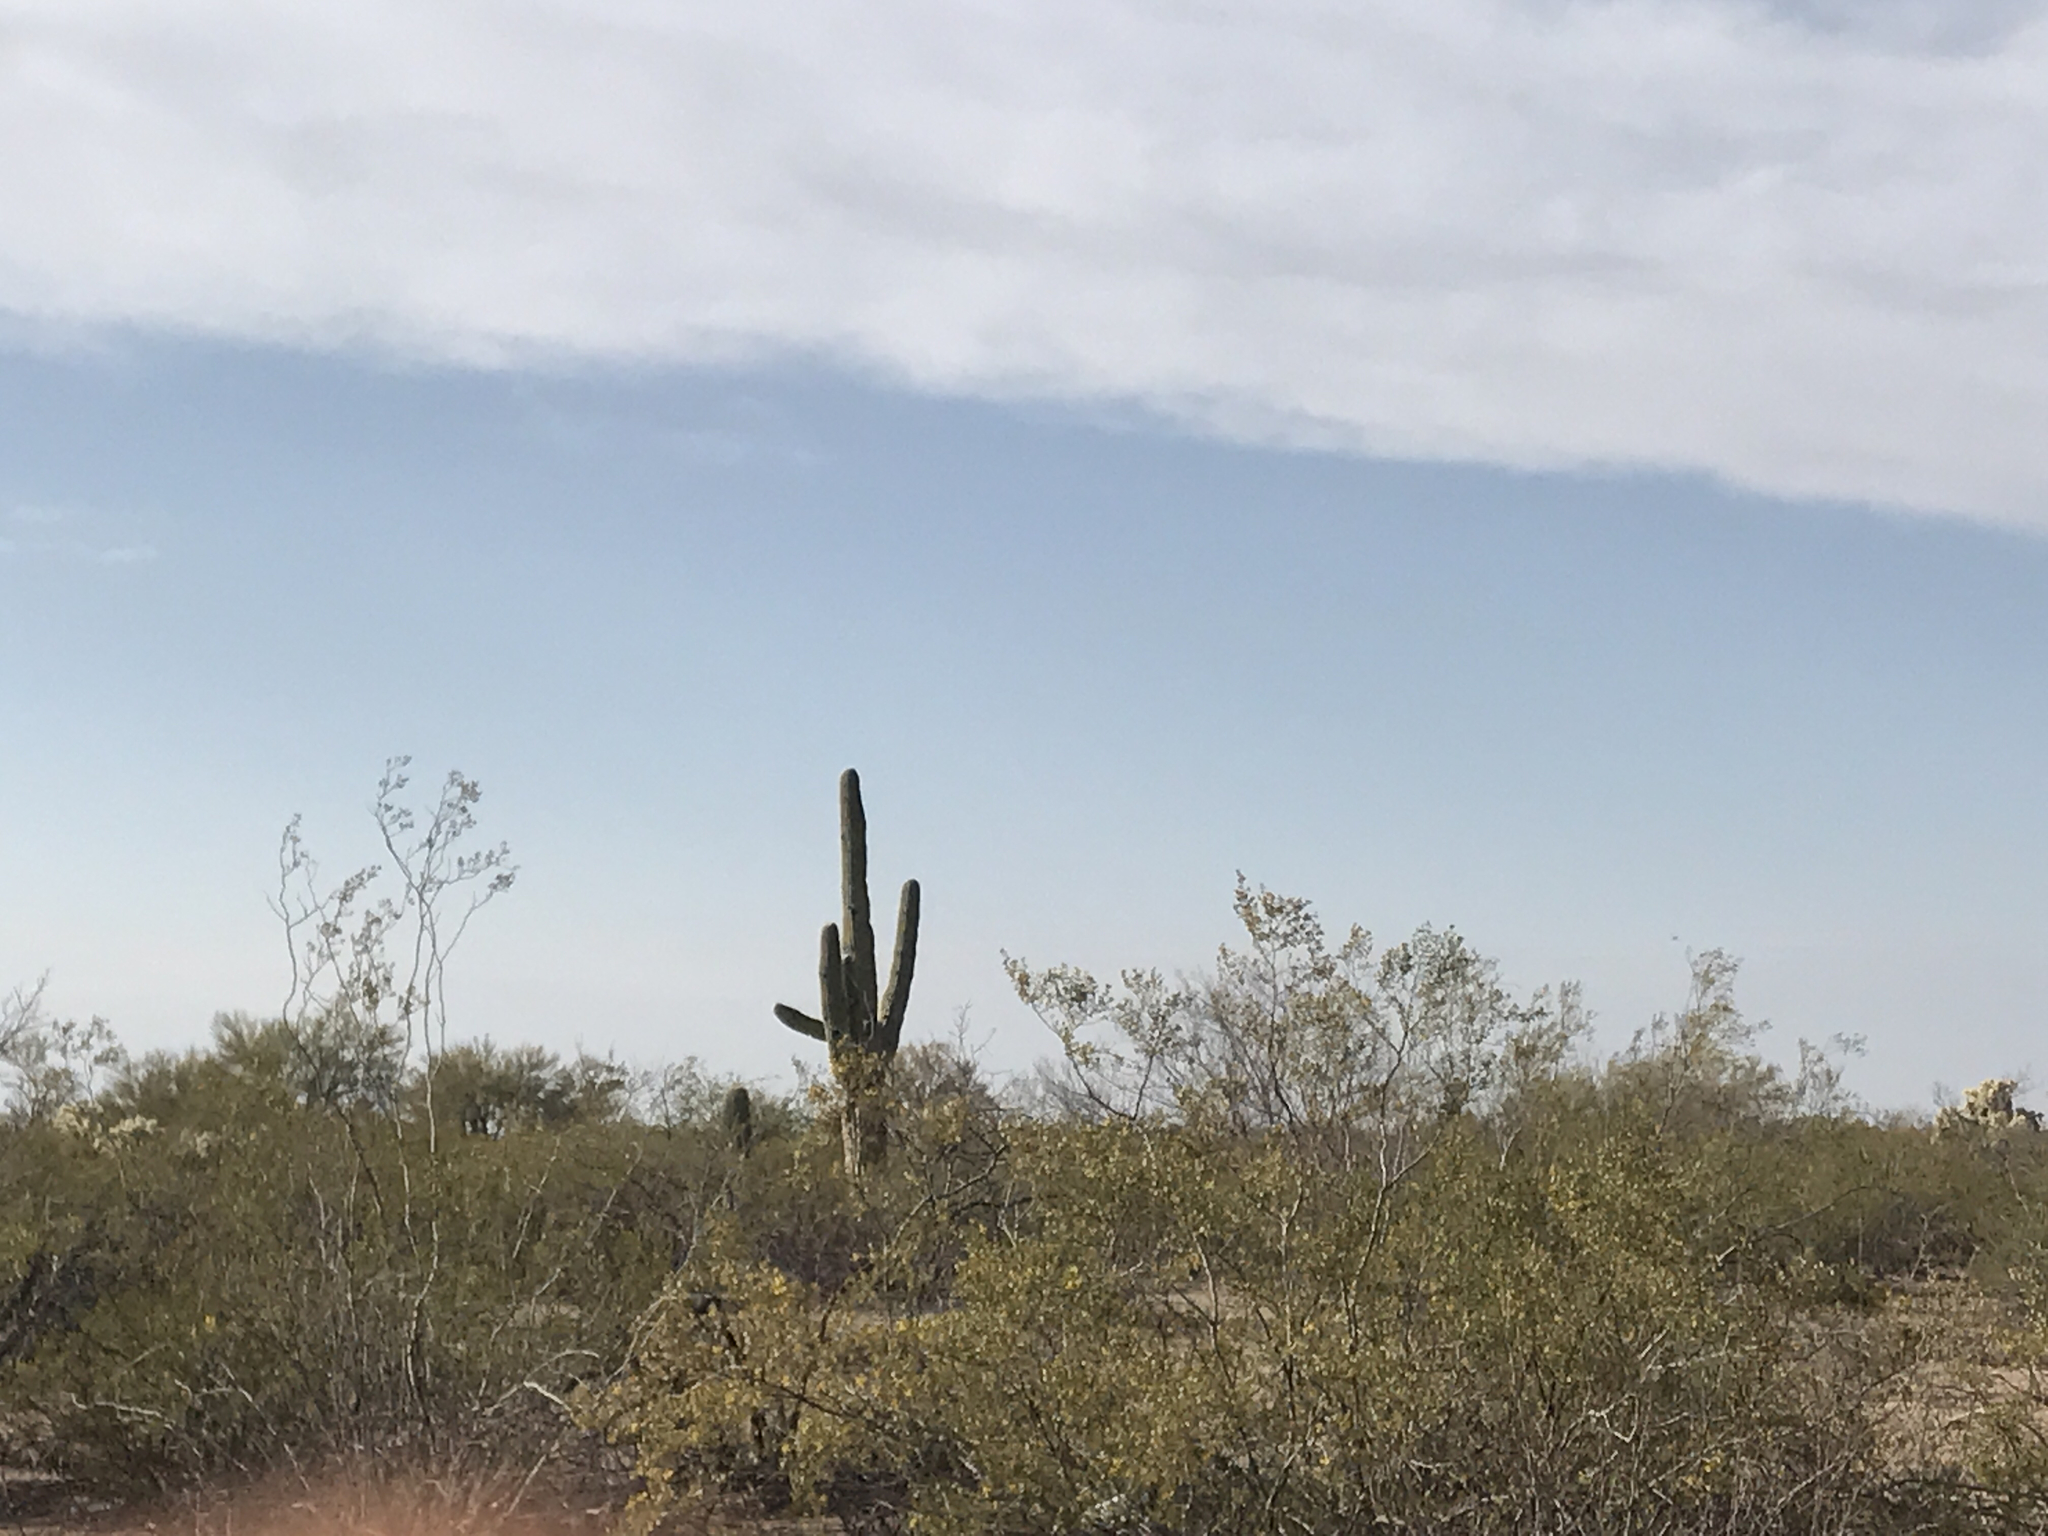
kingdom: Plantae
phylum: Tracheophyta
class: Magnoliopsida
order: Zygophyllales
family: Zygophyllaceae
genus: Larrea
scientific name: Larrea tridentata
